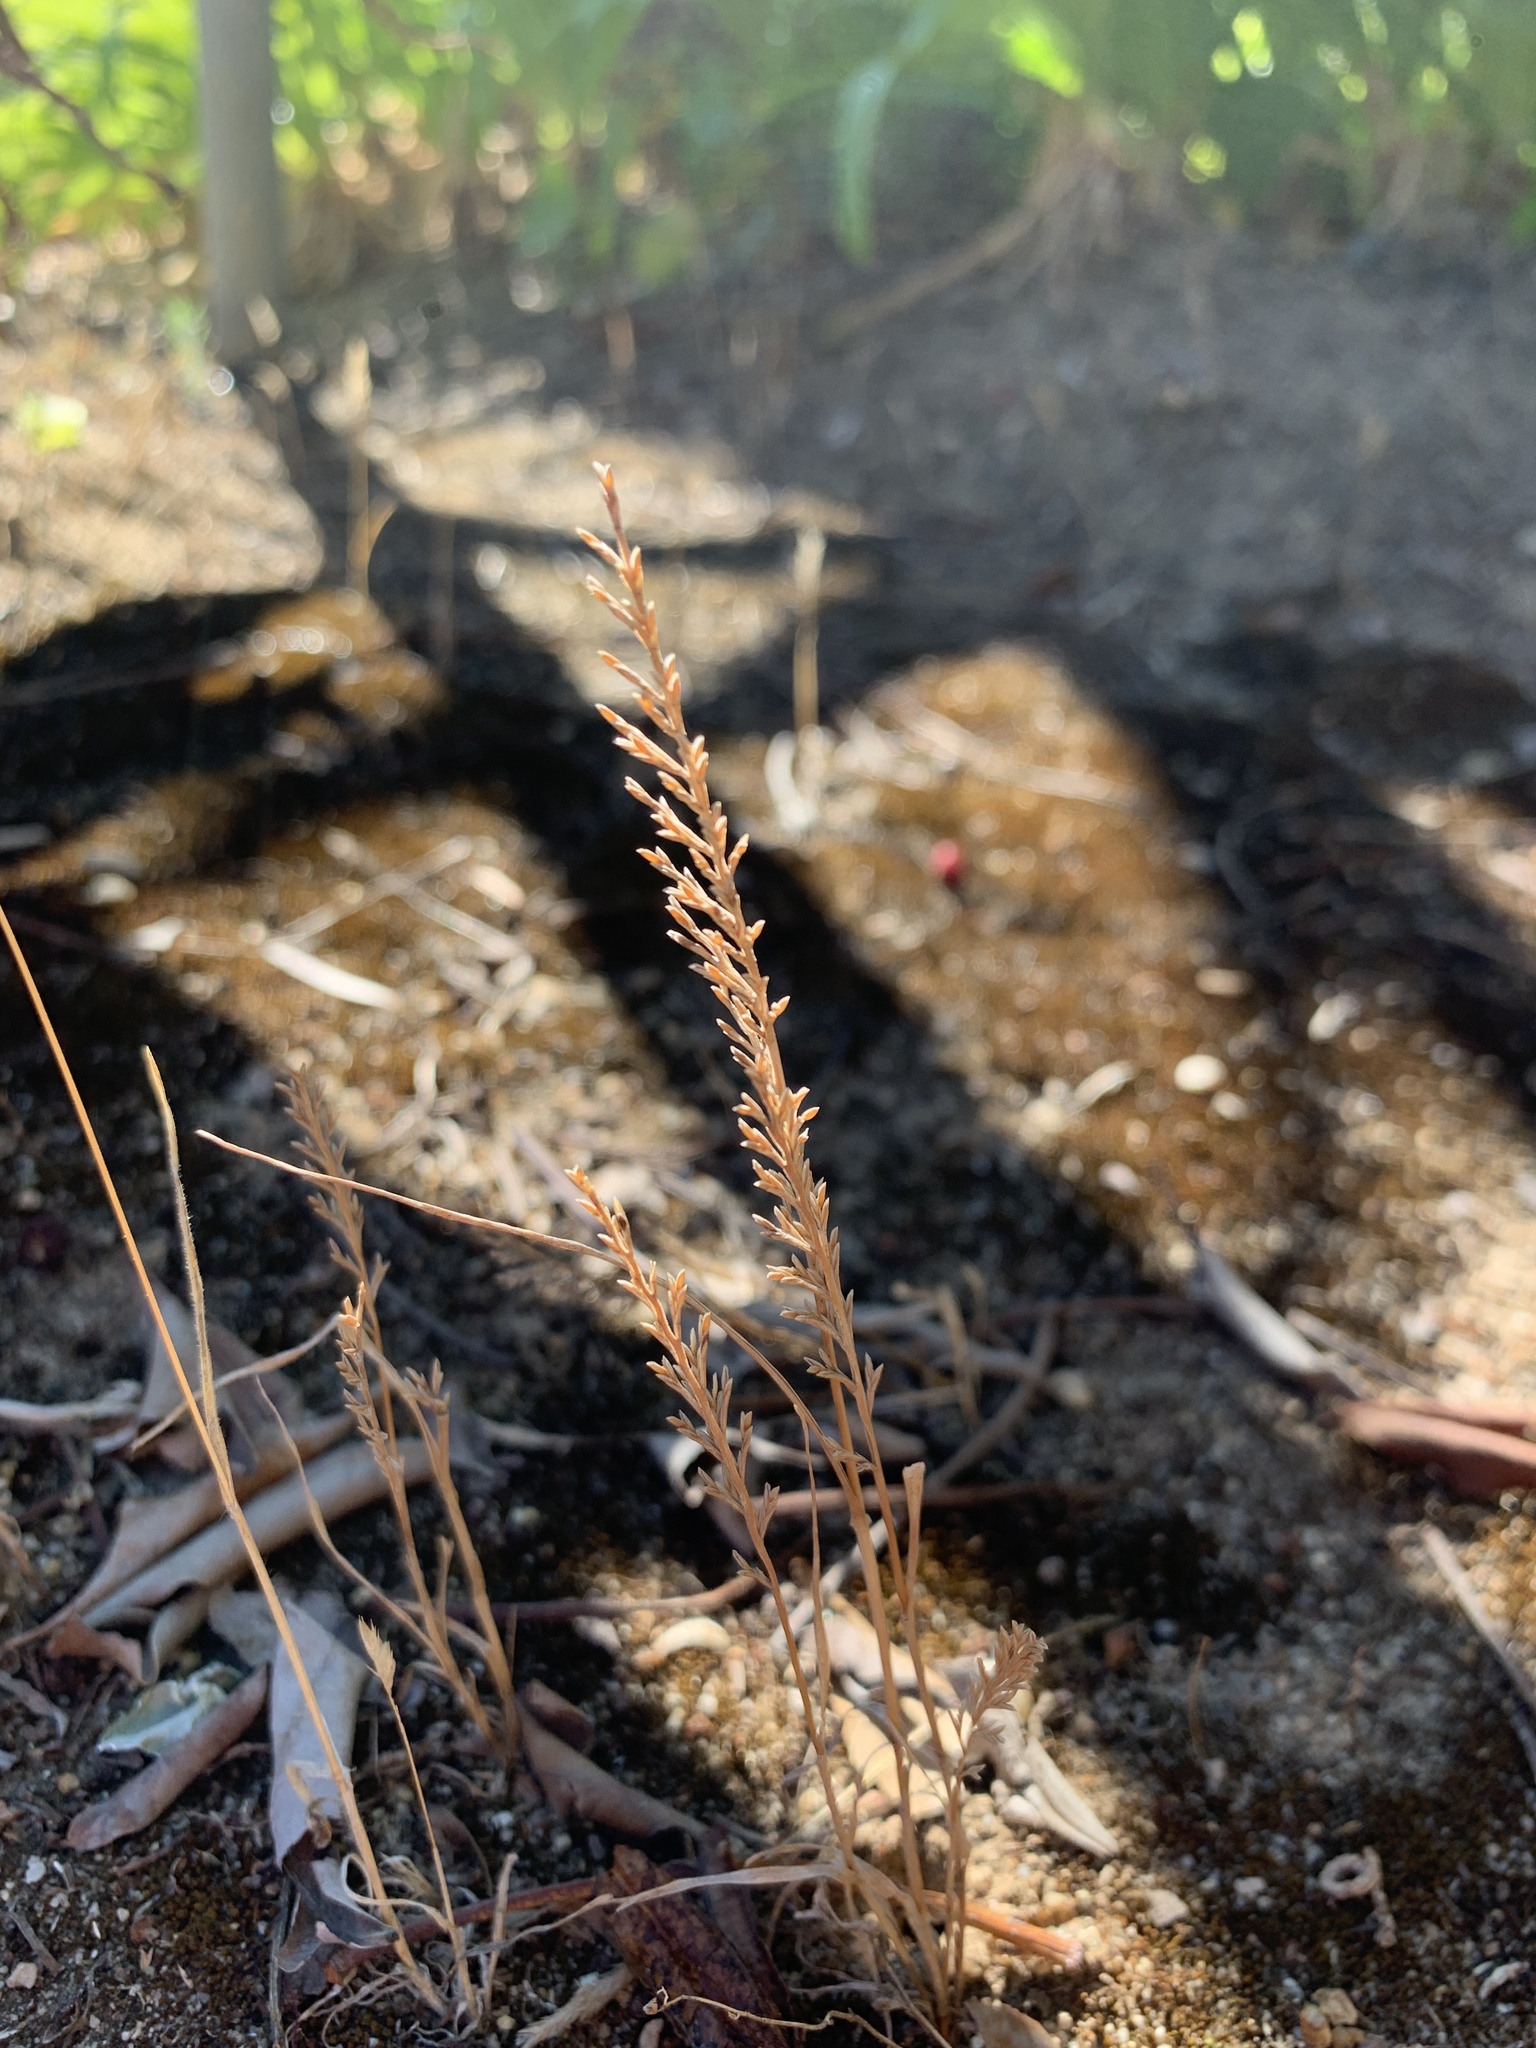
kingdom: Plantae
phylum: Tracheophyta
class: Liliopsida
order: Poales
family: Poaceae
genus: Catapodium
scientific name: Catapodium rigidum
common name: Fern-grass
